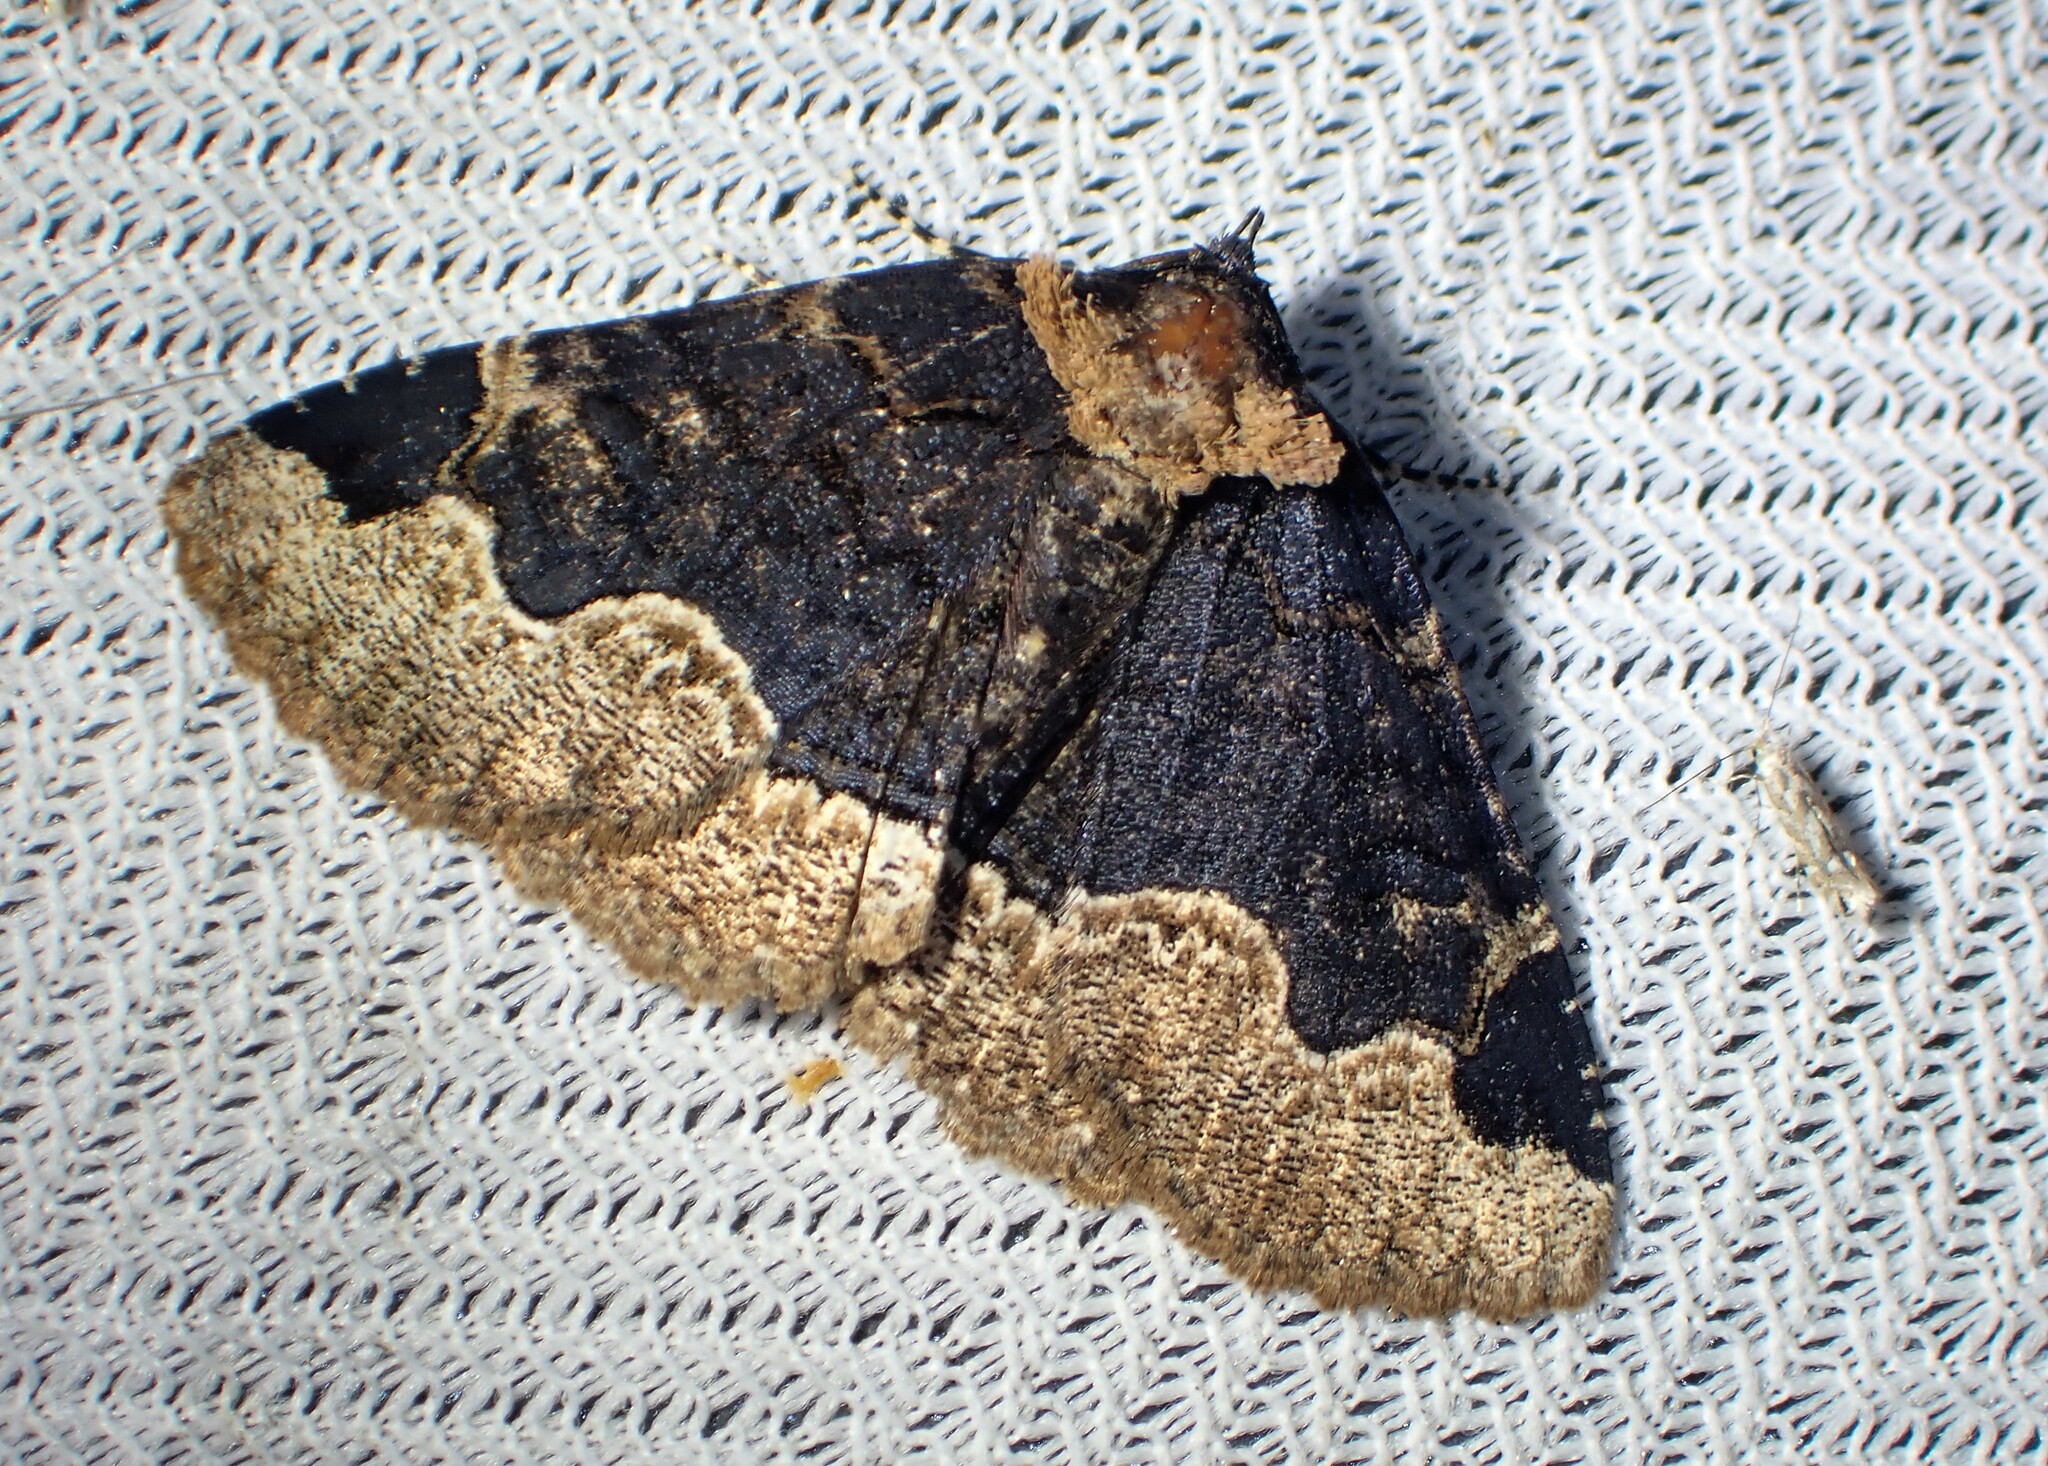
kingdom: Animalia
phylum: Arthropoda
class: Insecta
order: Lepidoptera
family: Erebidae
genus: Zale
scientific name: Zale horrida
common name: Horrid zale moth
